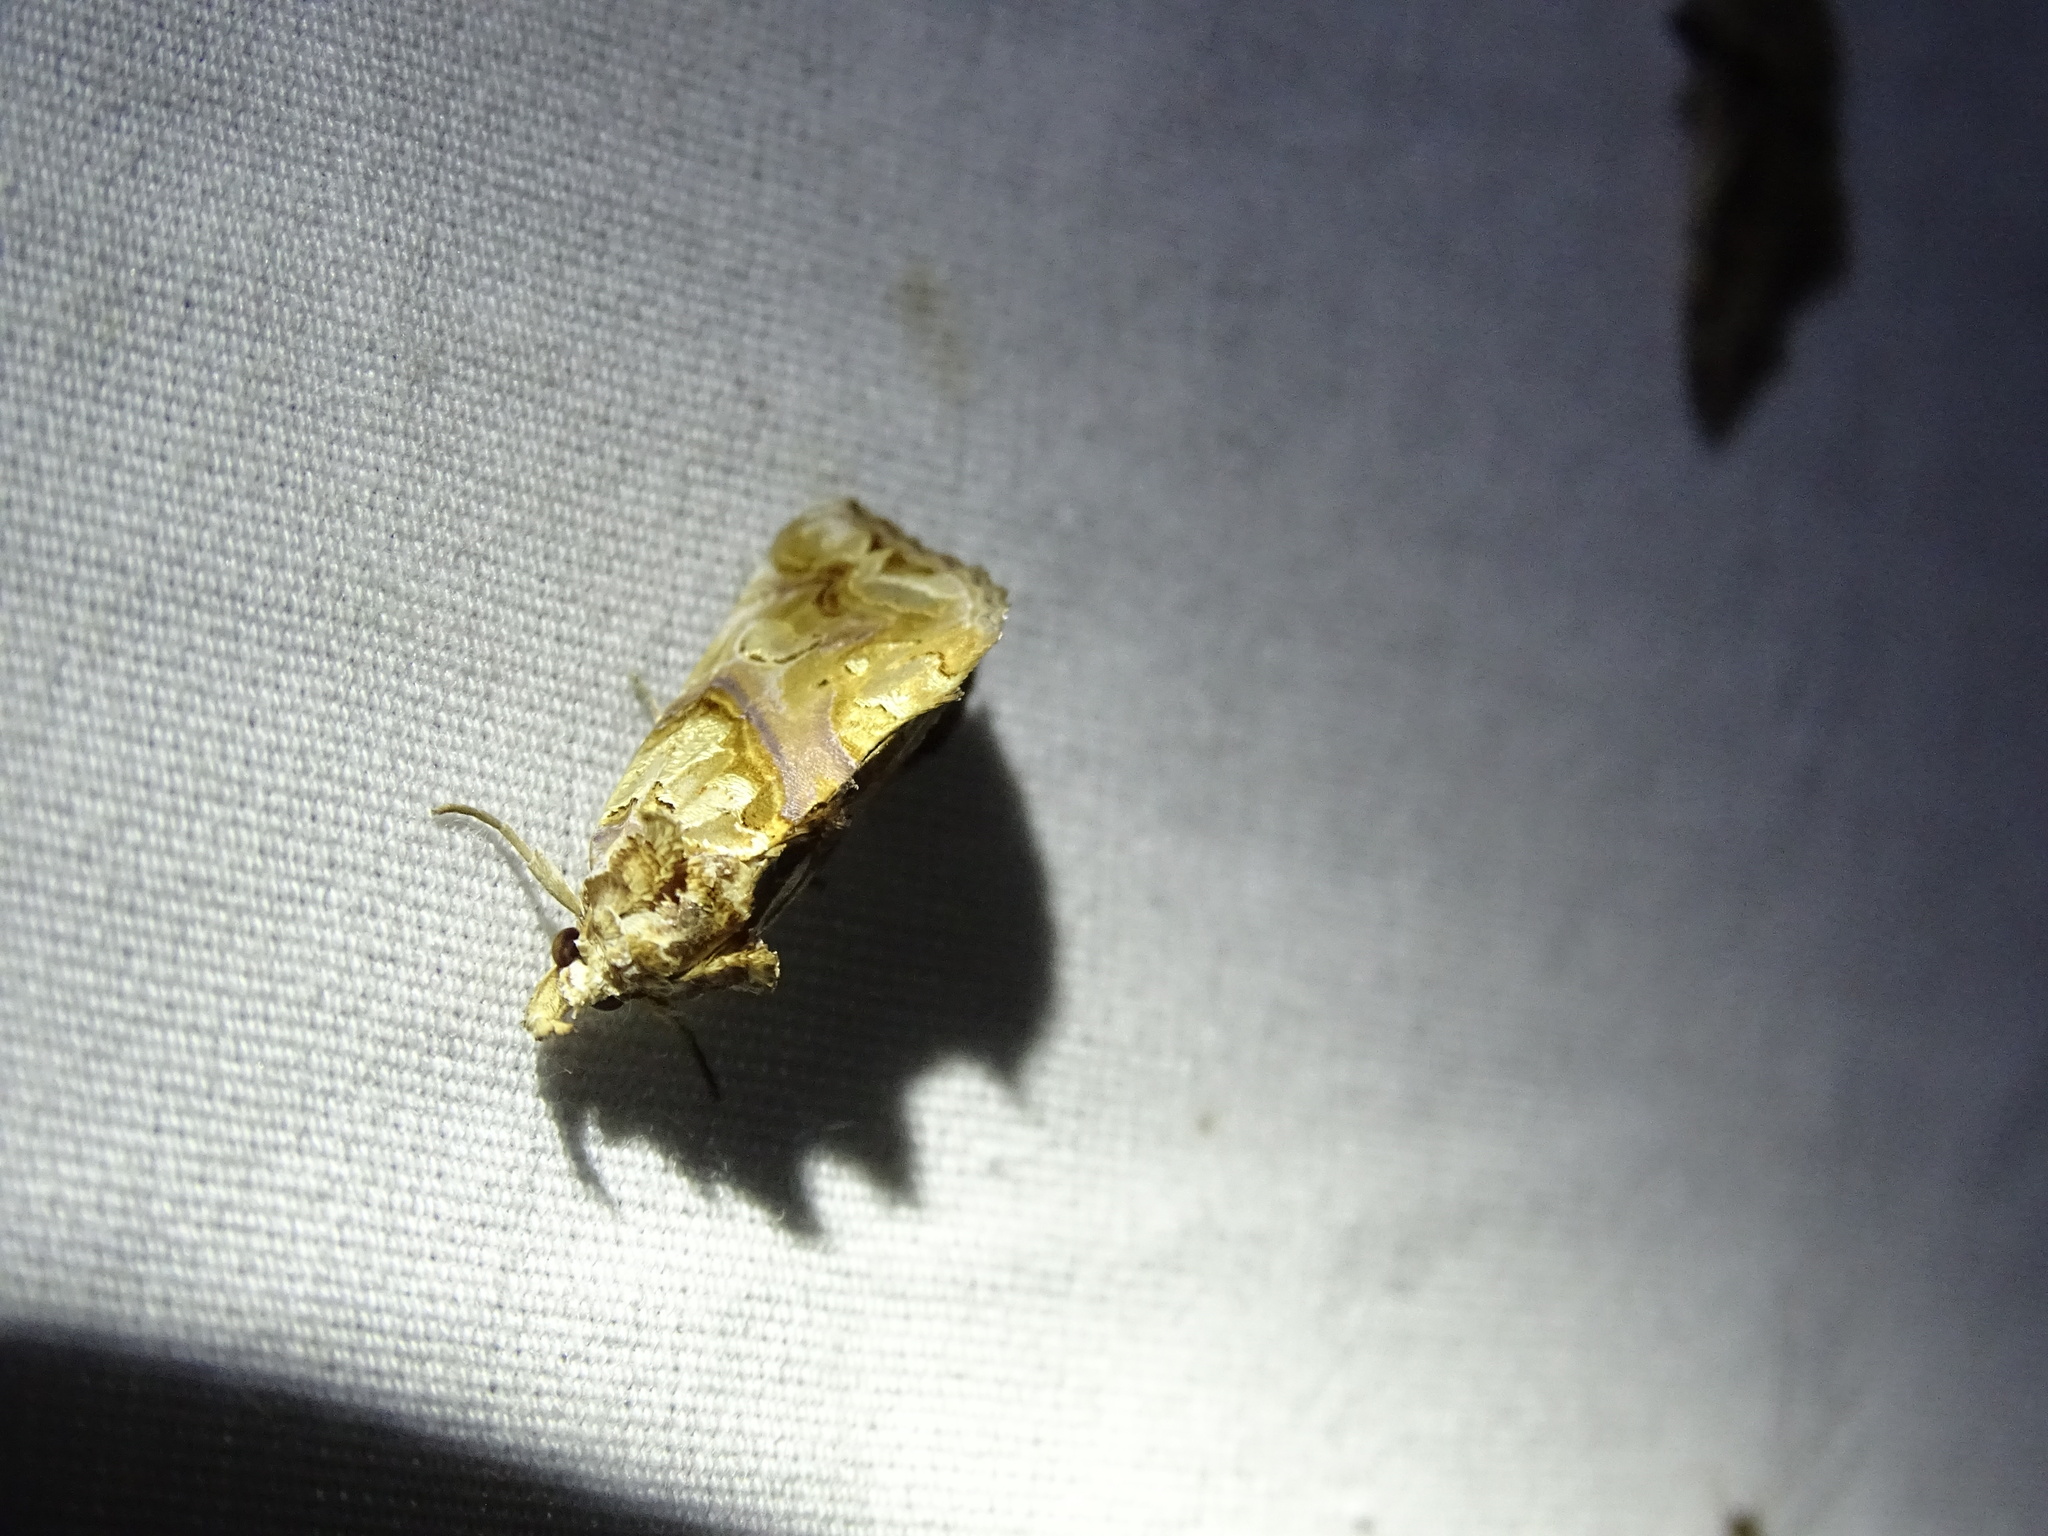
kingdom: Animalia
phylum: Arthropoda
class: Insecta
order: Lepidoptera
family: Erebidae
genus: Plusiodonta
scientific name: Plusiodonta compressipalpis
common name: Moonseed moth
